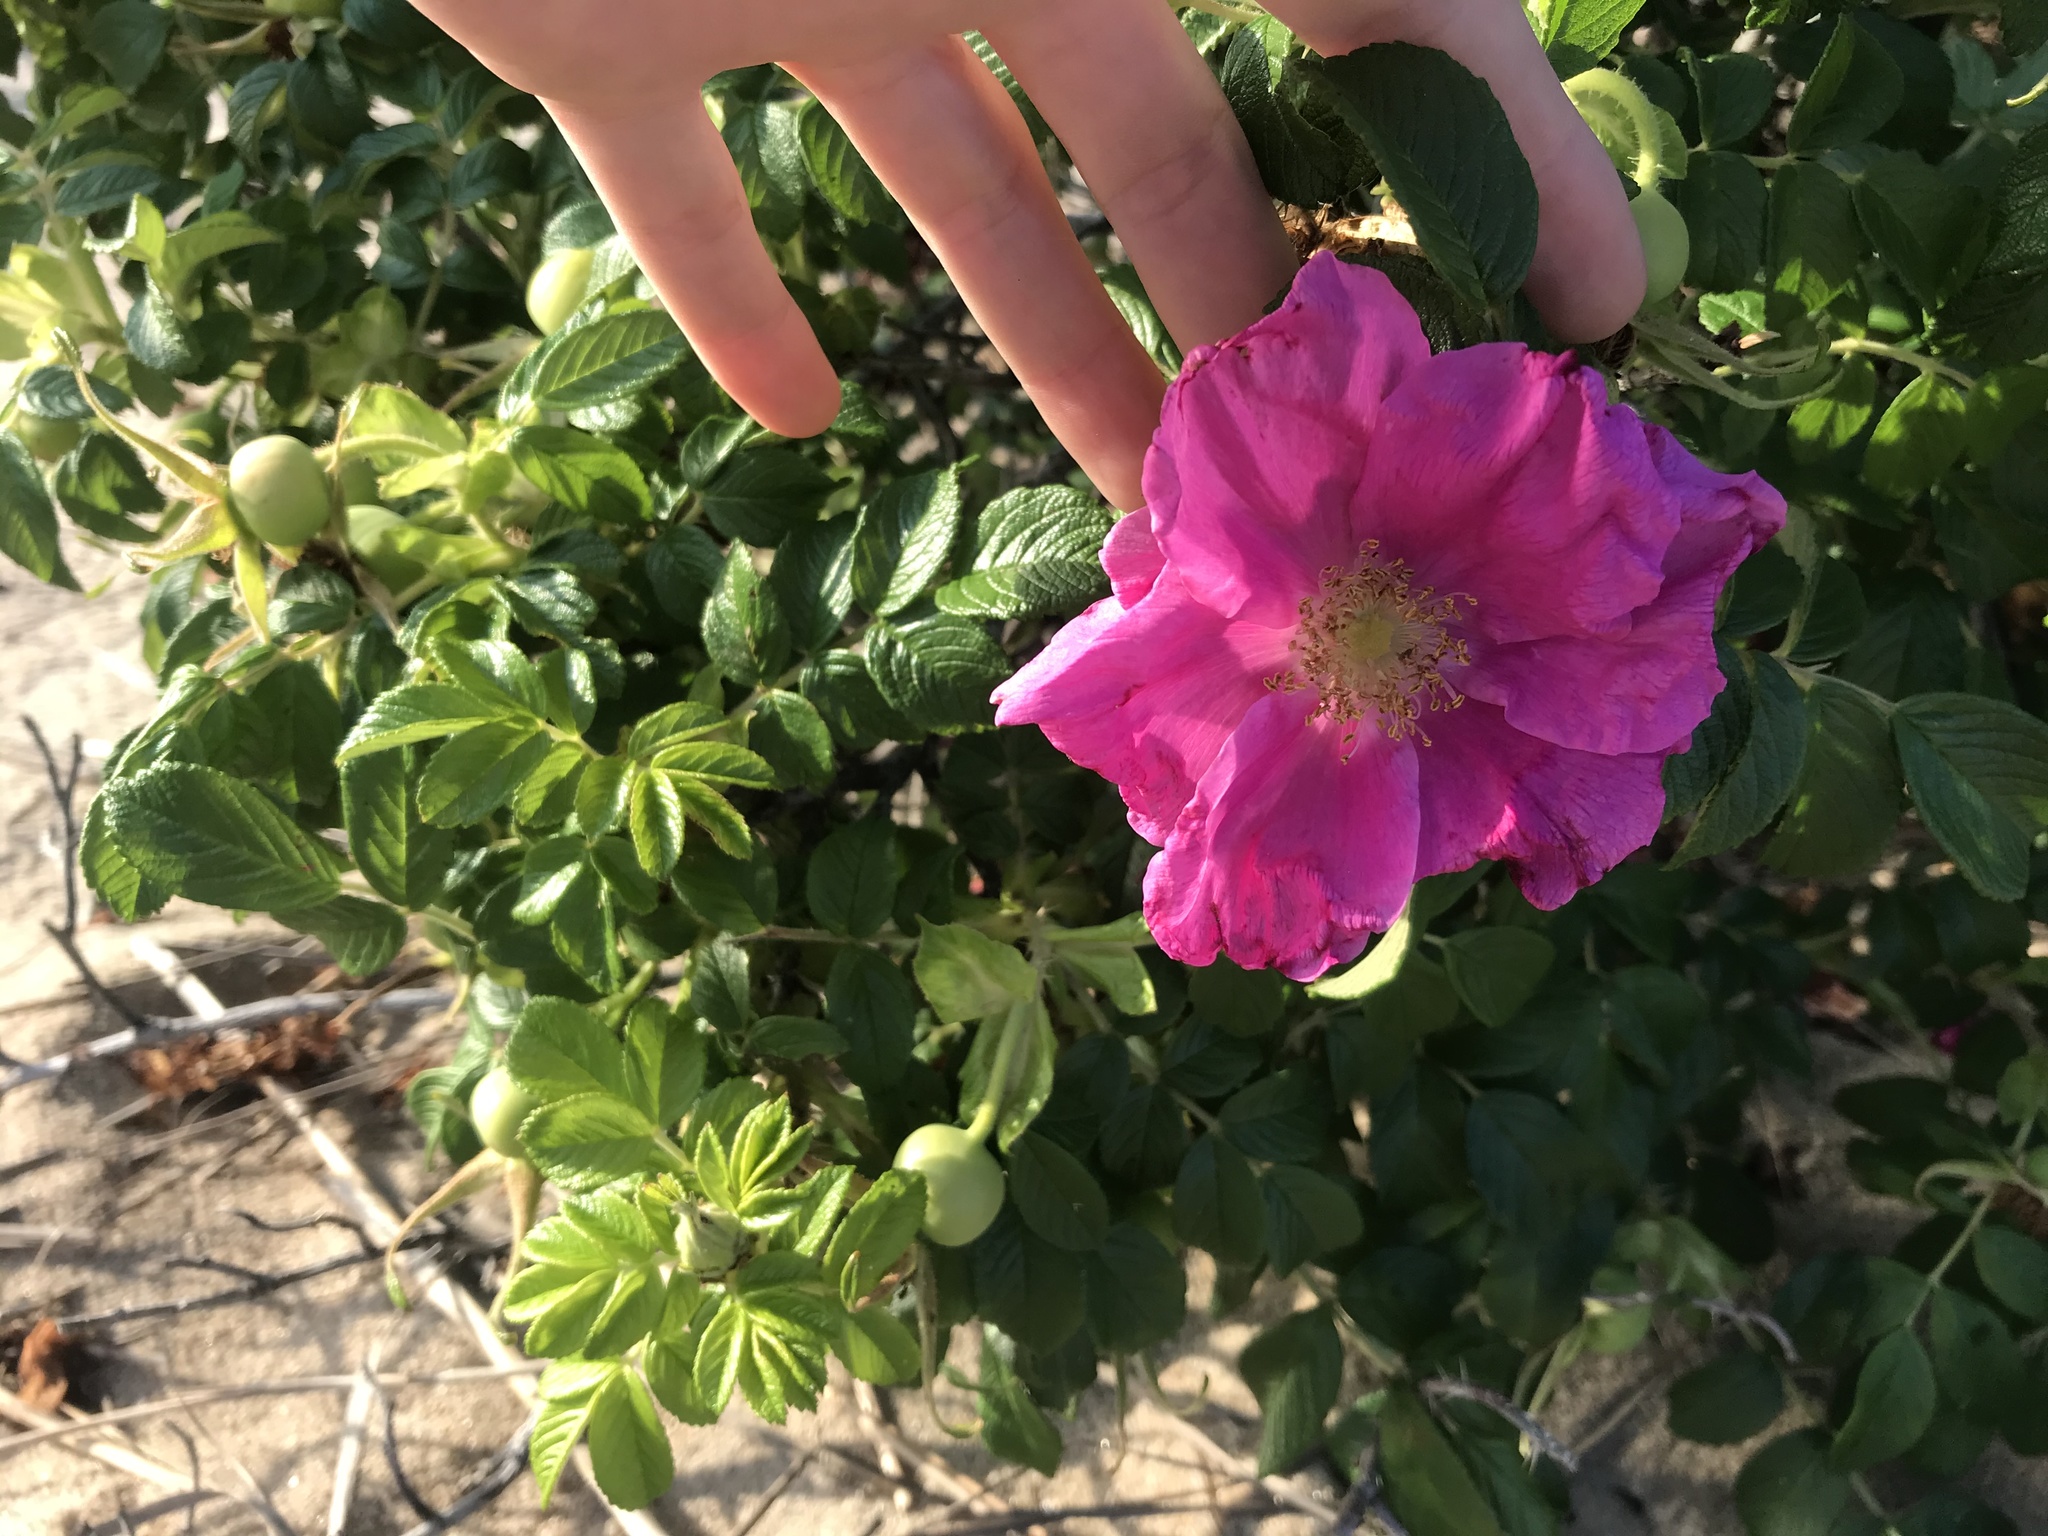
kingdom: Plantae
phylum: Tracheophyta
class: Magnoliopsida
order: Rosales
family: Rosaceae
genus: Rosa
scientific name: Rosa rugosa
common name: Japanese rose
